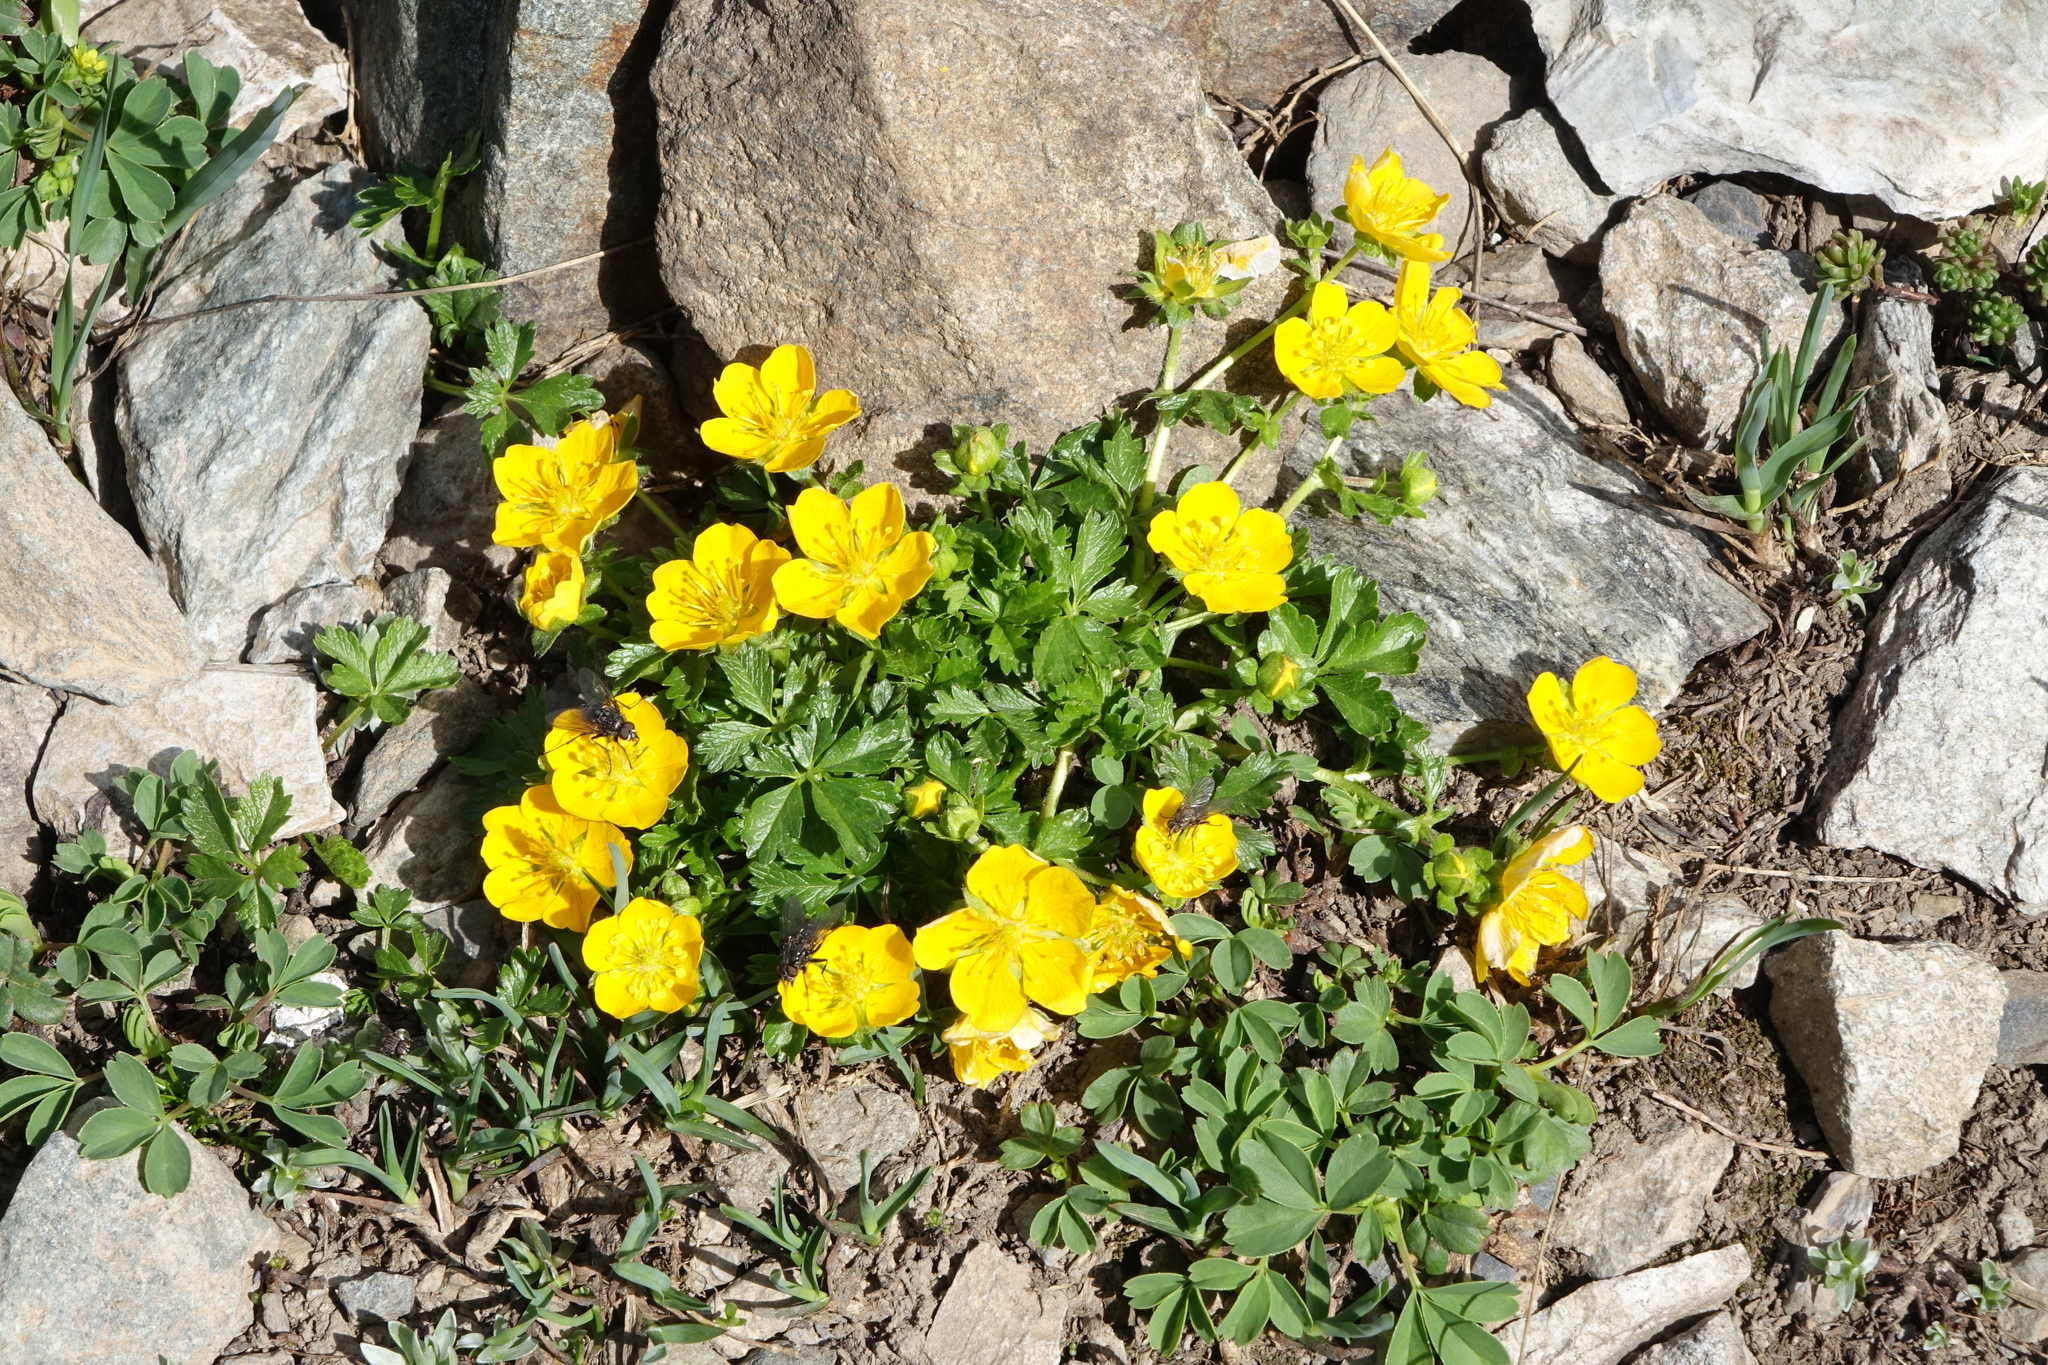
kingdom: Plantae
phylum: Tracheophyta
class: Magnoliopsida
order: Rosales
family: Rosaceae
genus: Potentilla
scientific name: Potentilla ruprechtii
